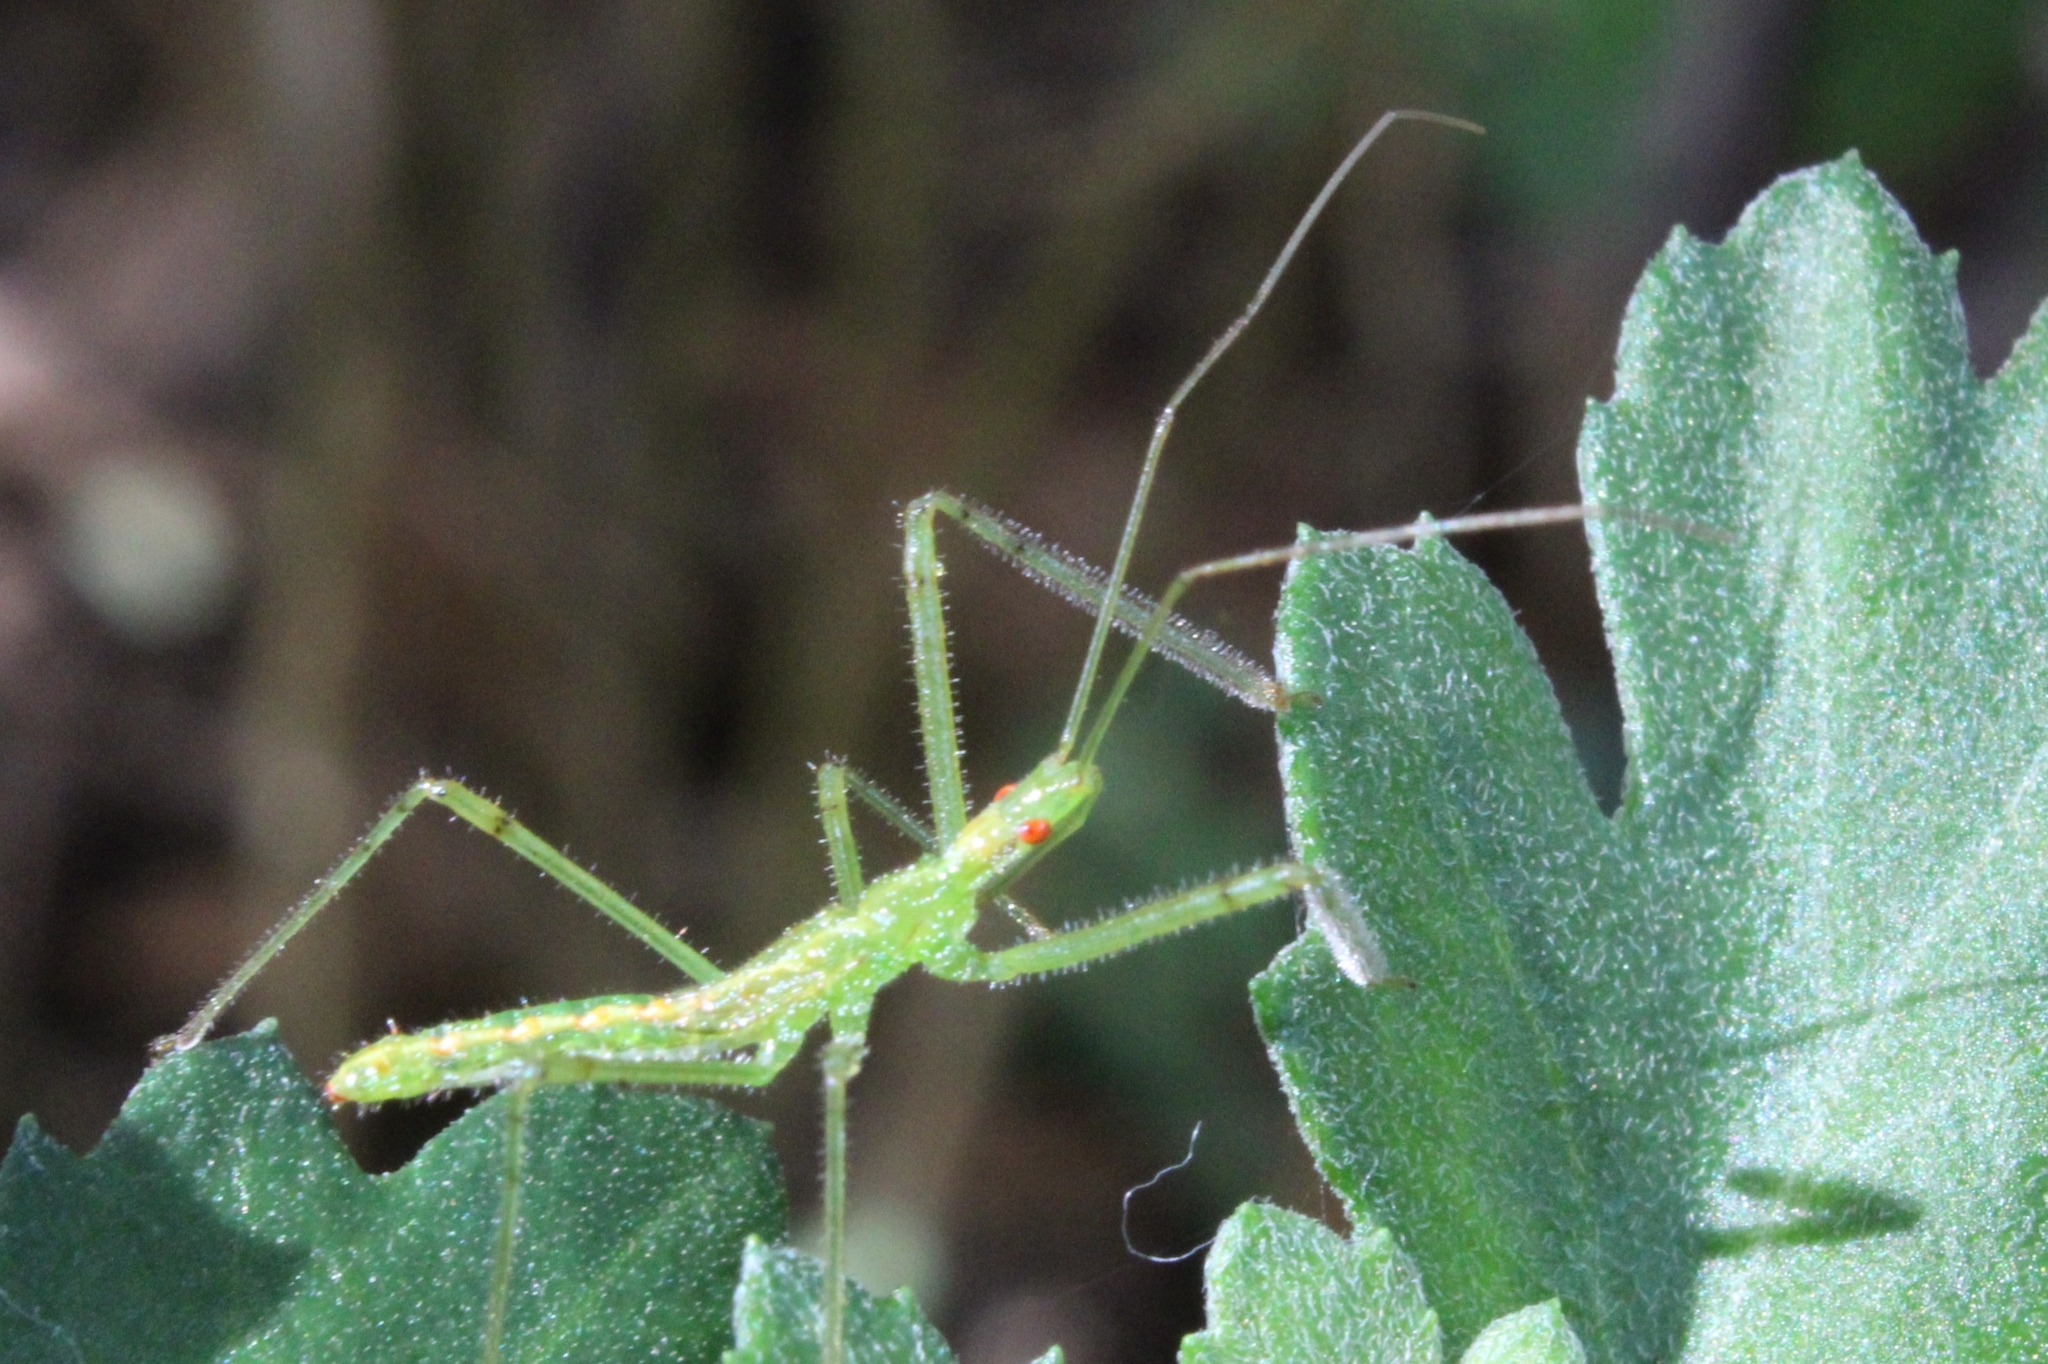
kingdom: Animalia
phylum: Arthropoda
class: Insecta
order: Hemiptera
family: Reduviidae
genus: Zelus
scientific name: Zelus luridus
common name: Pale green assassin bug
